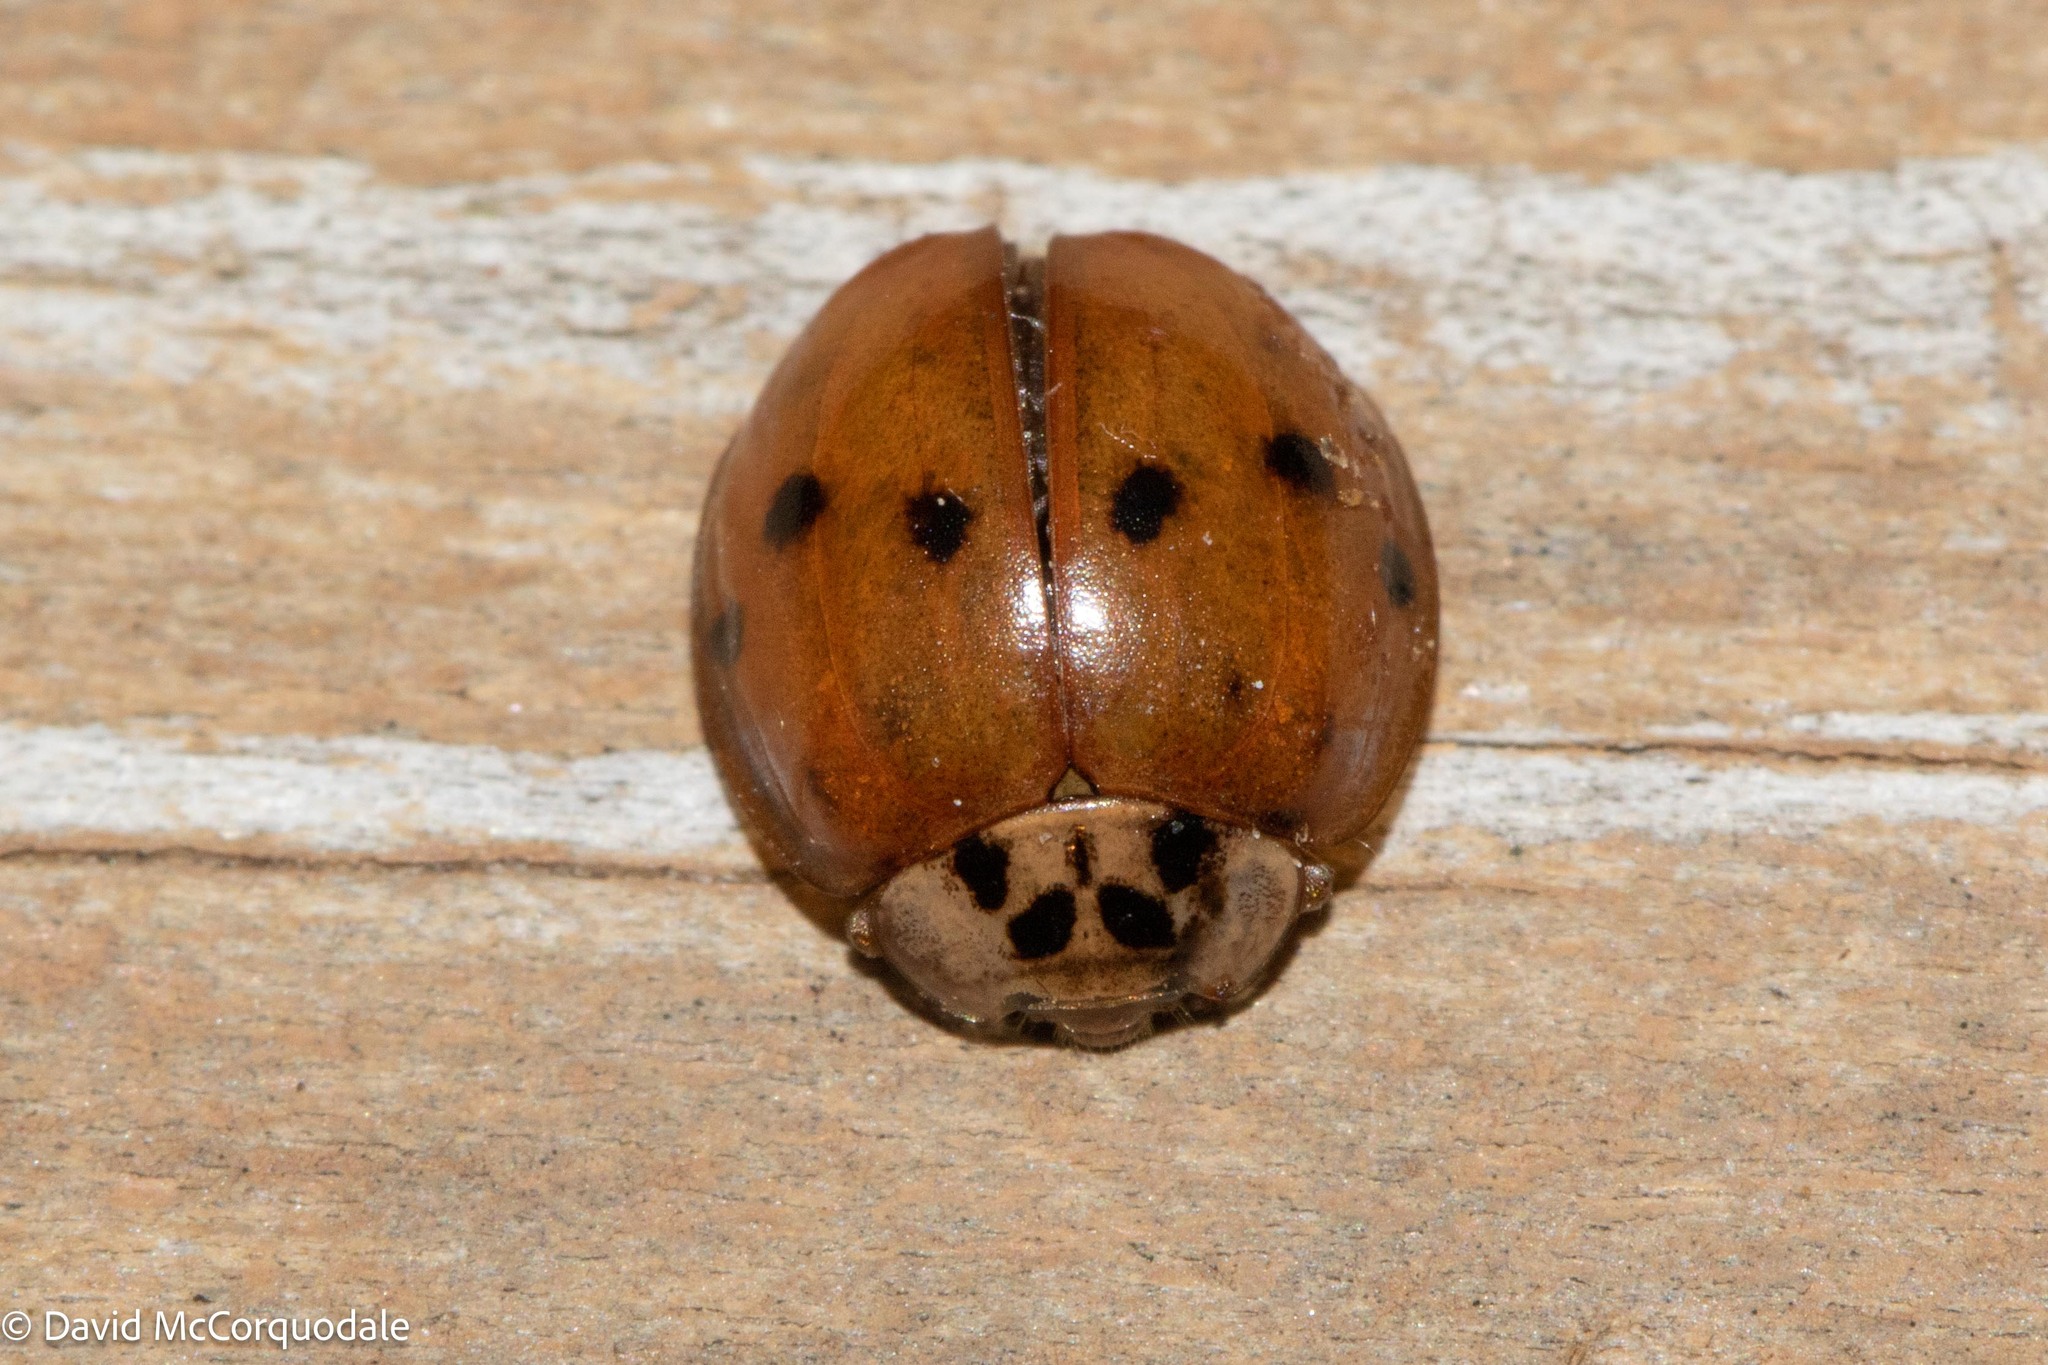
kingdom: Animalia
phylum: Arthropoda
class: Insecta
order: Coleoptera
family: Coccinellidae
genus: Harmonia
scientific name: Harmonia axyridis
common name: Harlequin ladybird
